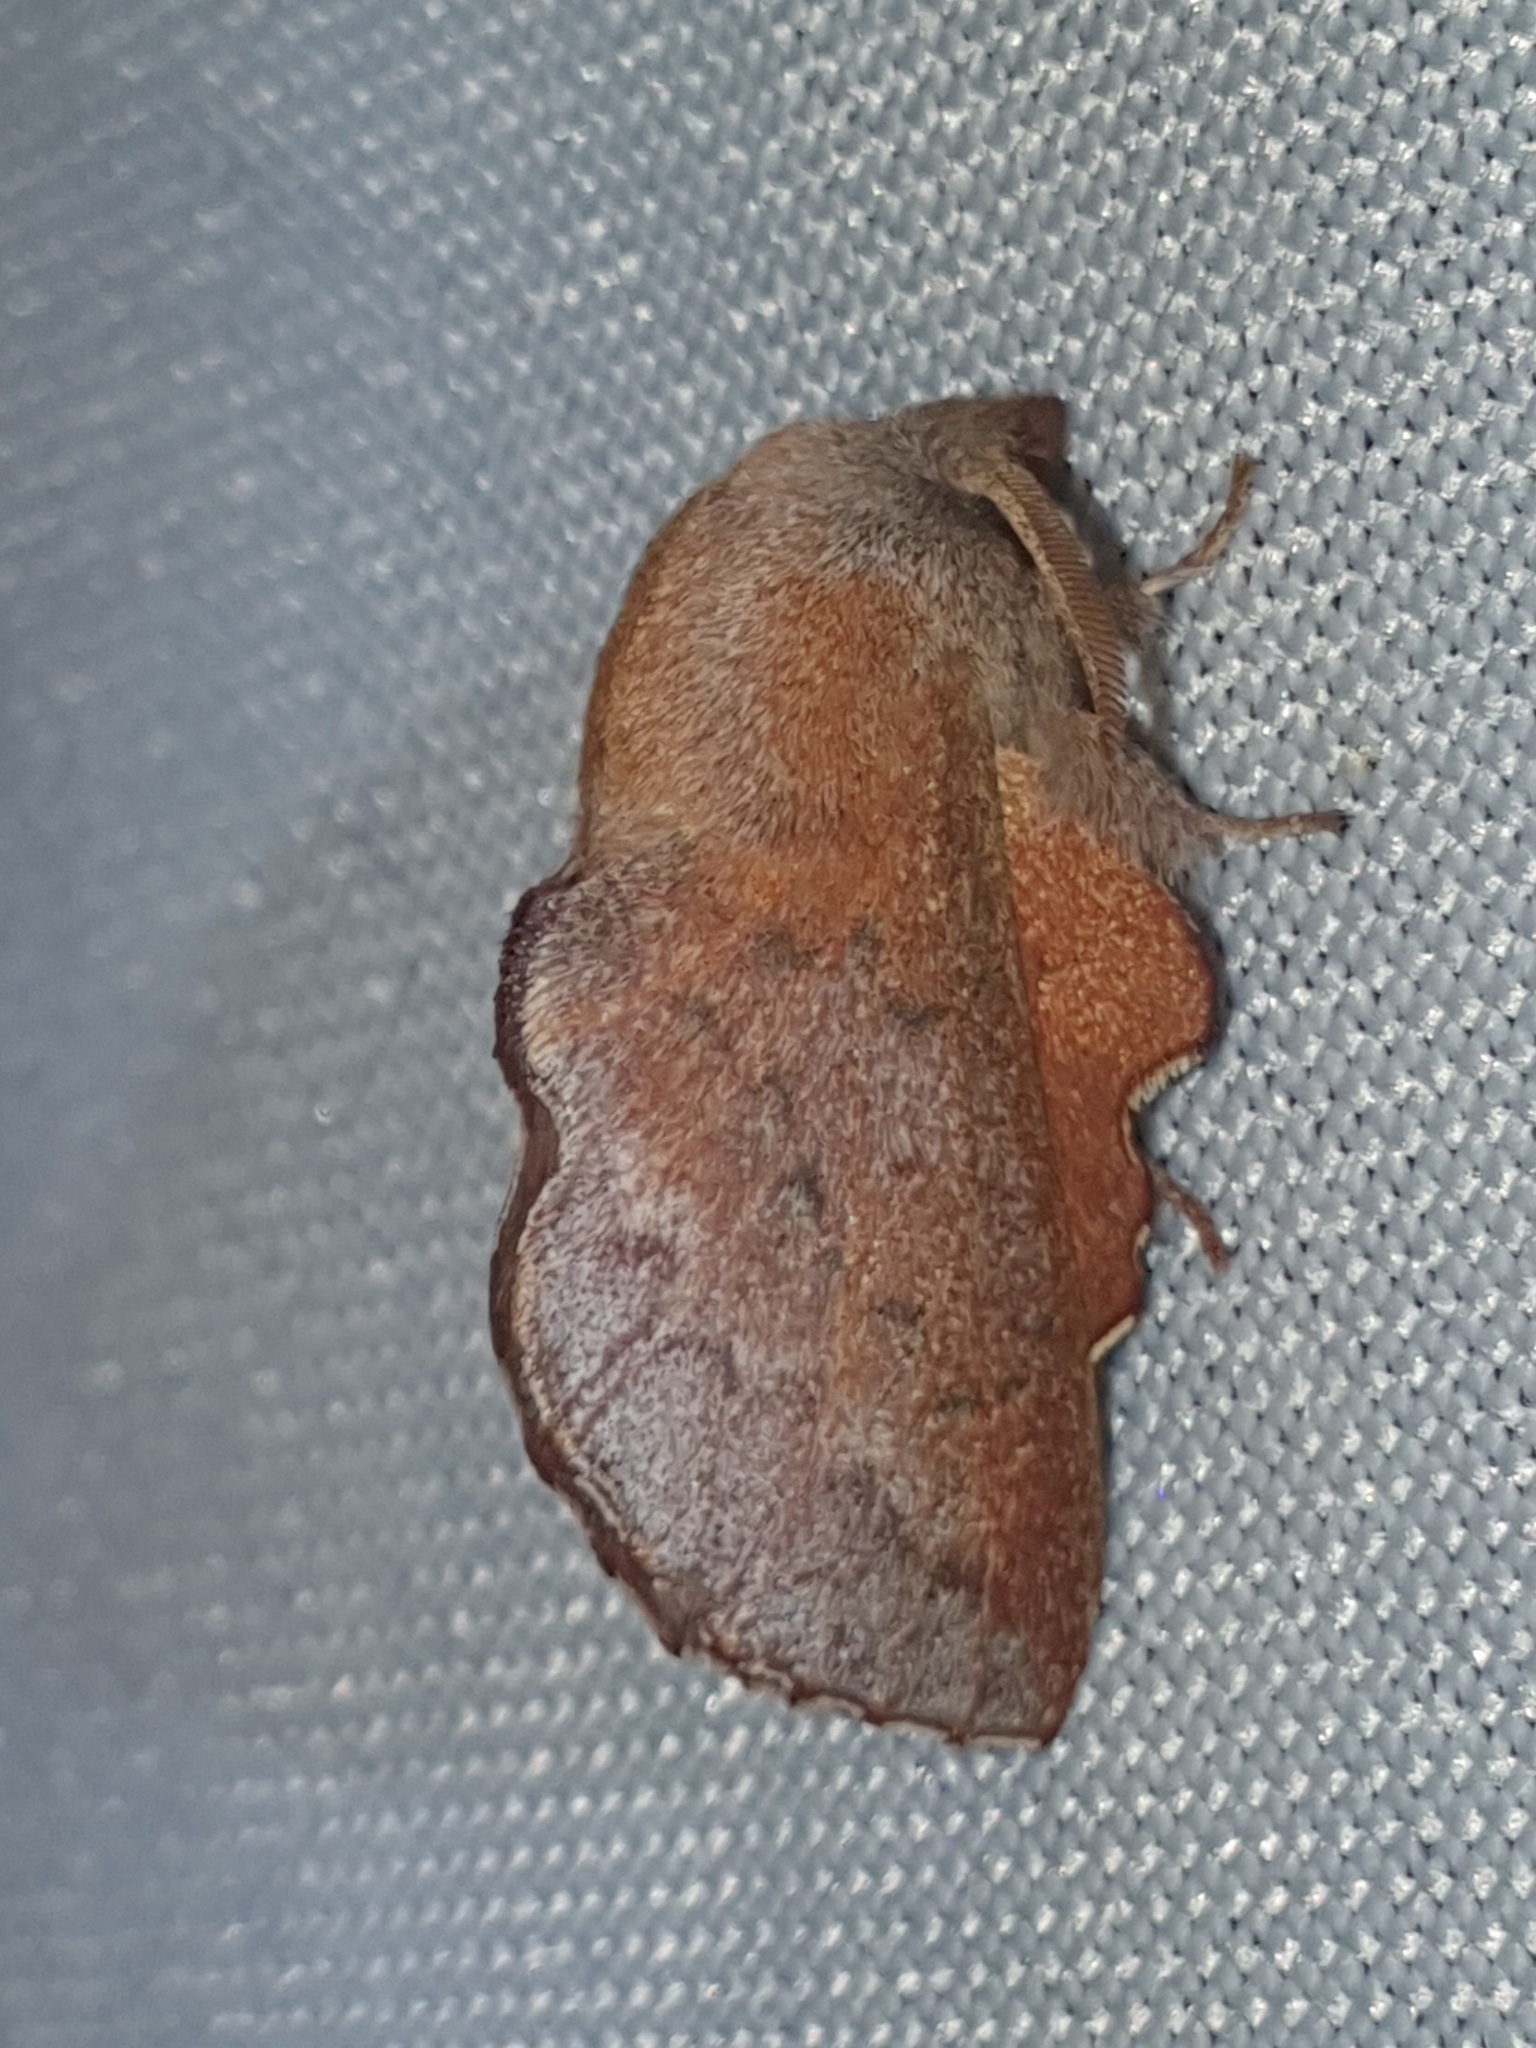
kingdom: Animalia
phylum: Arthropoda
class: Insecta
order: Lepidoptera
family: Lasiocampidae
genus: Phyllodesma
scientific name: Phyllodesma tremulifolia
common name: Aspen lappet
